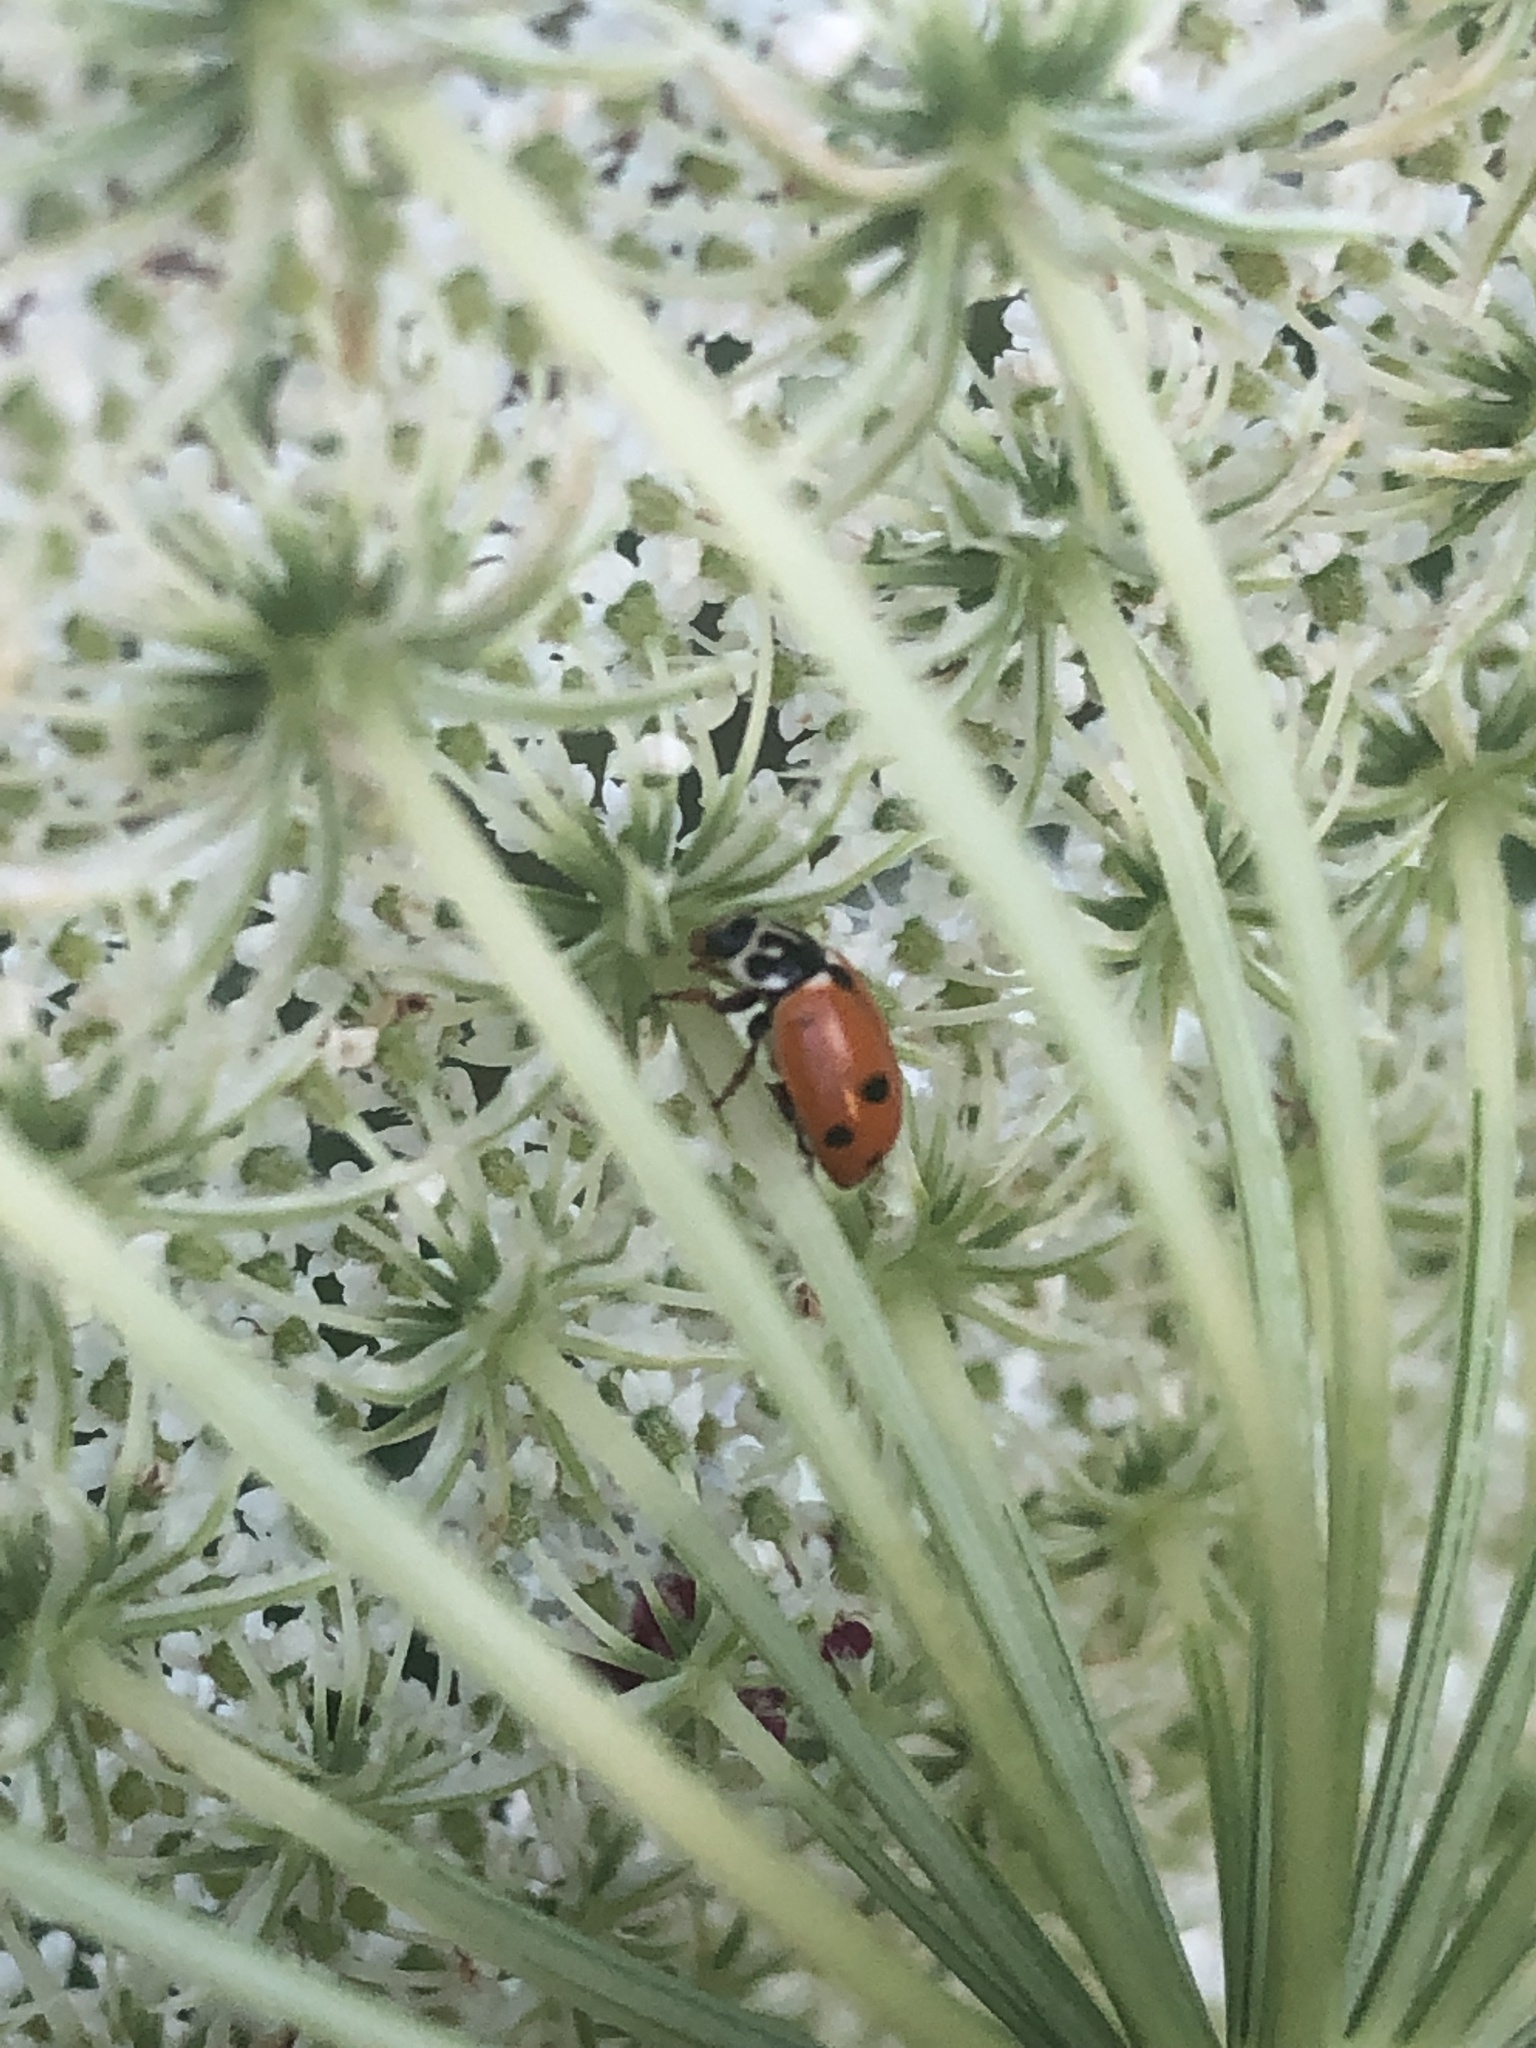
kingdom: Animalia
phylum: Arthropoda
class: Insecta
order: Coleoptera
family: Coccinellidae
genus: Hippodamia
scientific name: Hippodamia variegata
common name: Ladybird beetle
